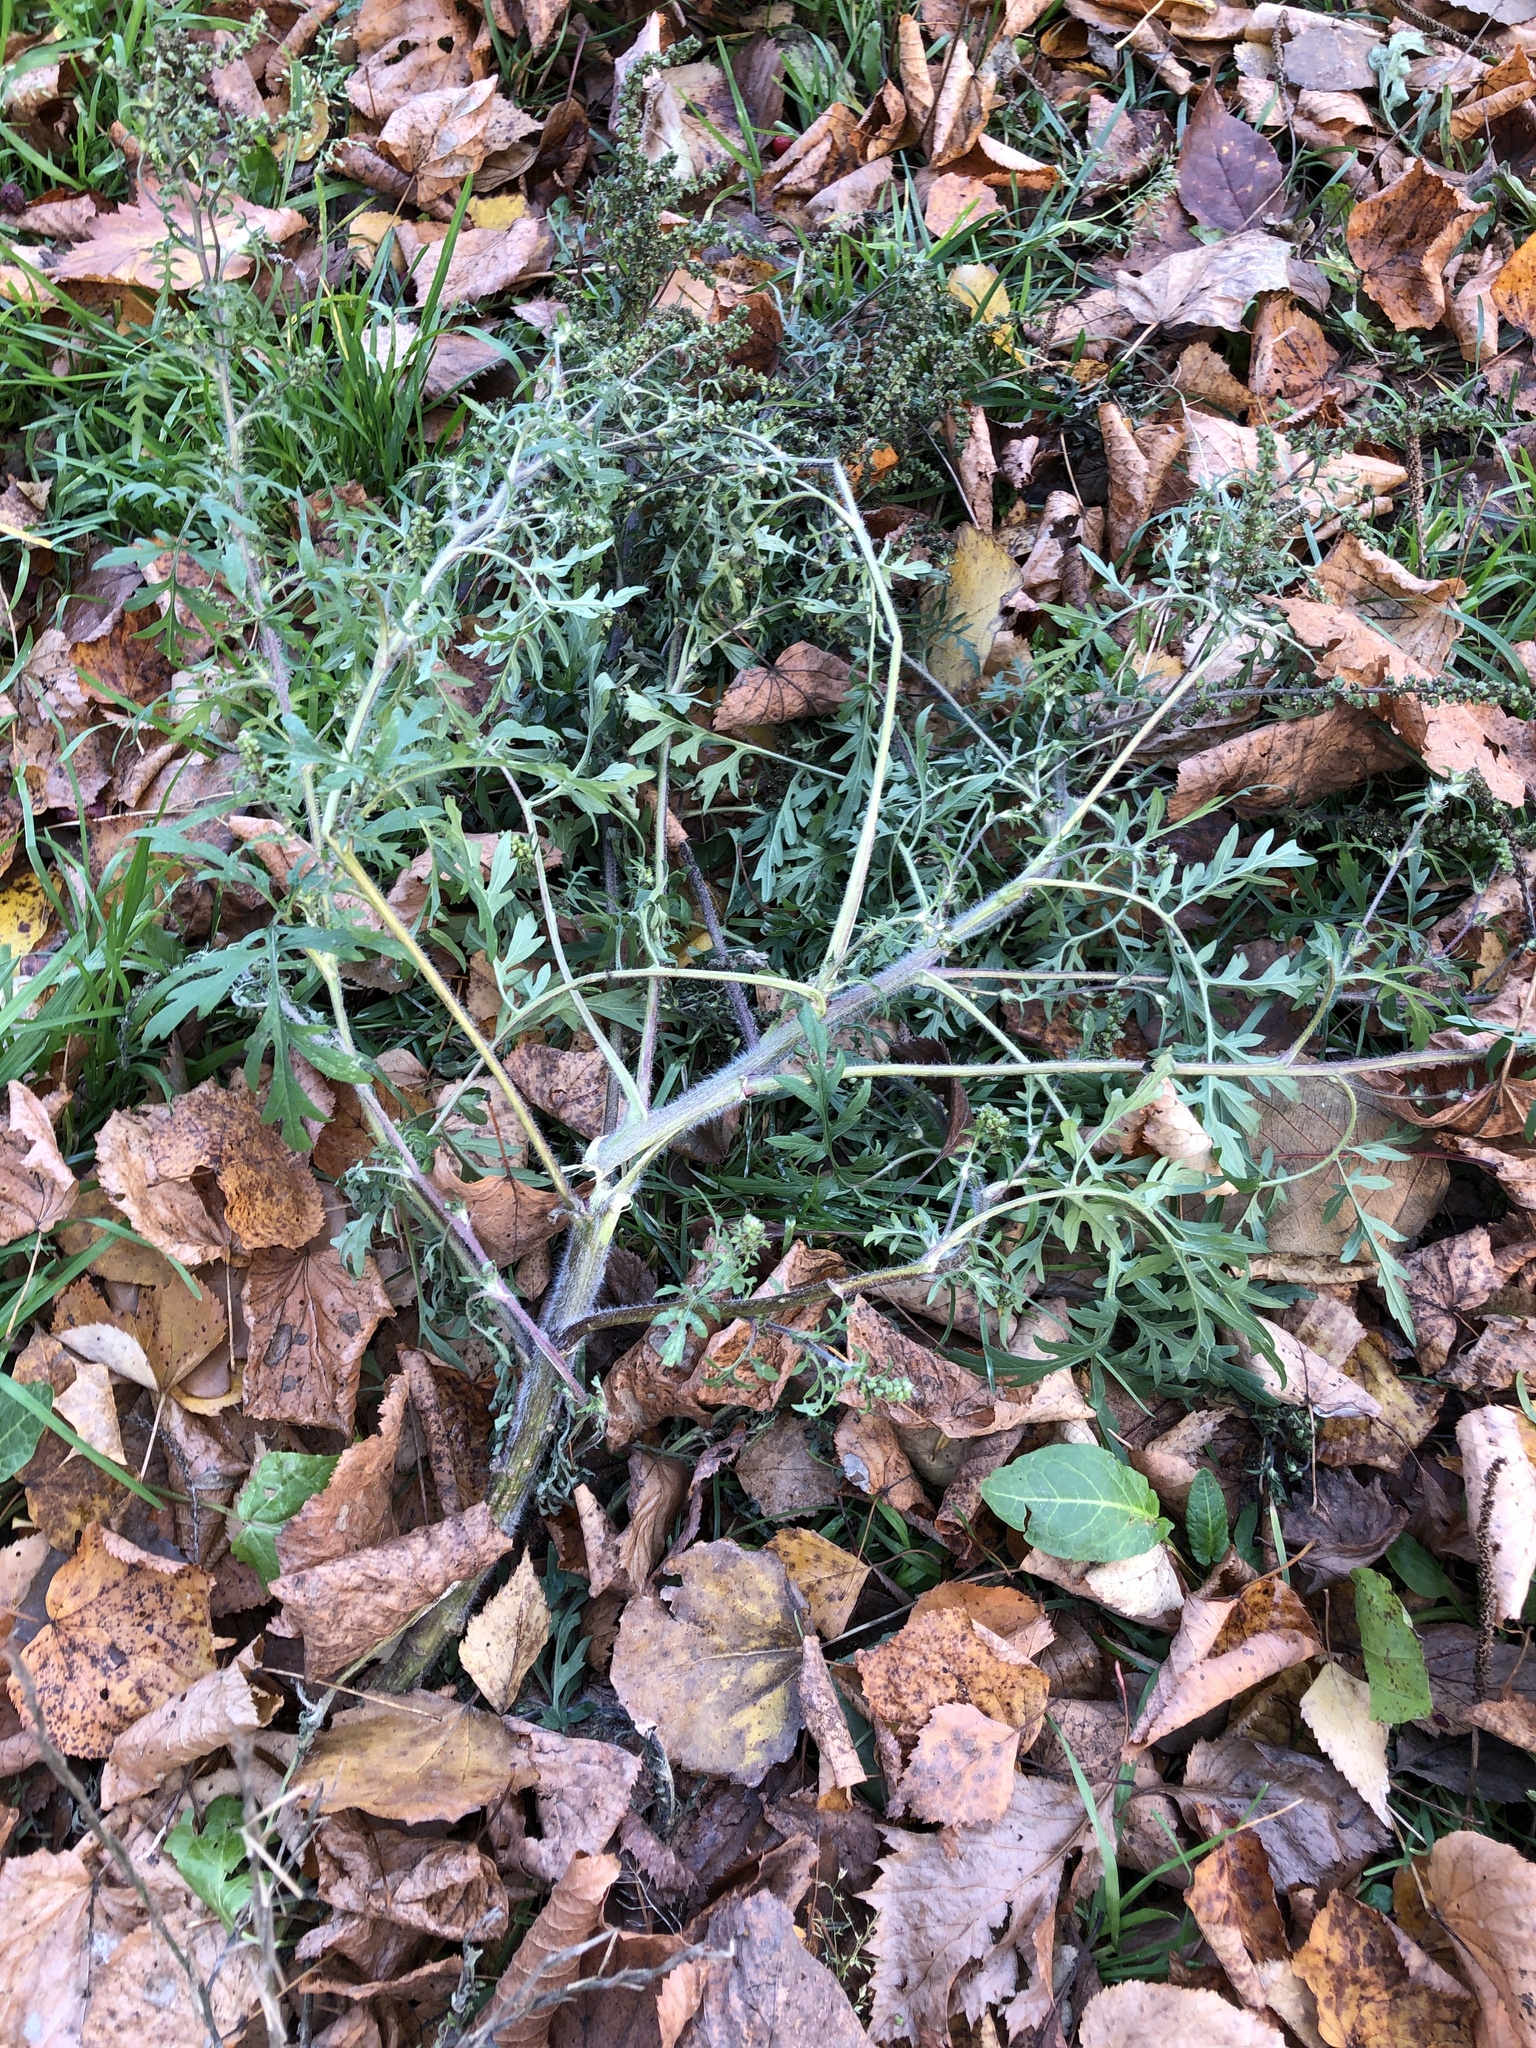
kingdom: Plantae
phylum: Tracheophyta
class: Magnoliopsida
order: Asterales
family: Asteraceae
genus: Ambrosia
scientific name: Ambrosia artemisiifolia
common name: Annual ragweed
